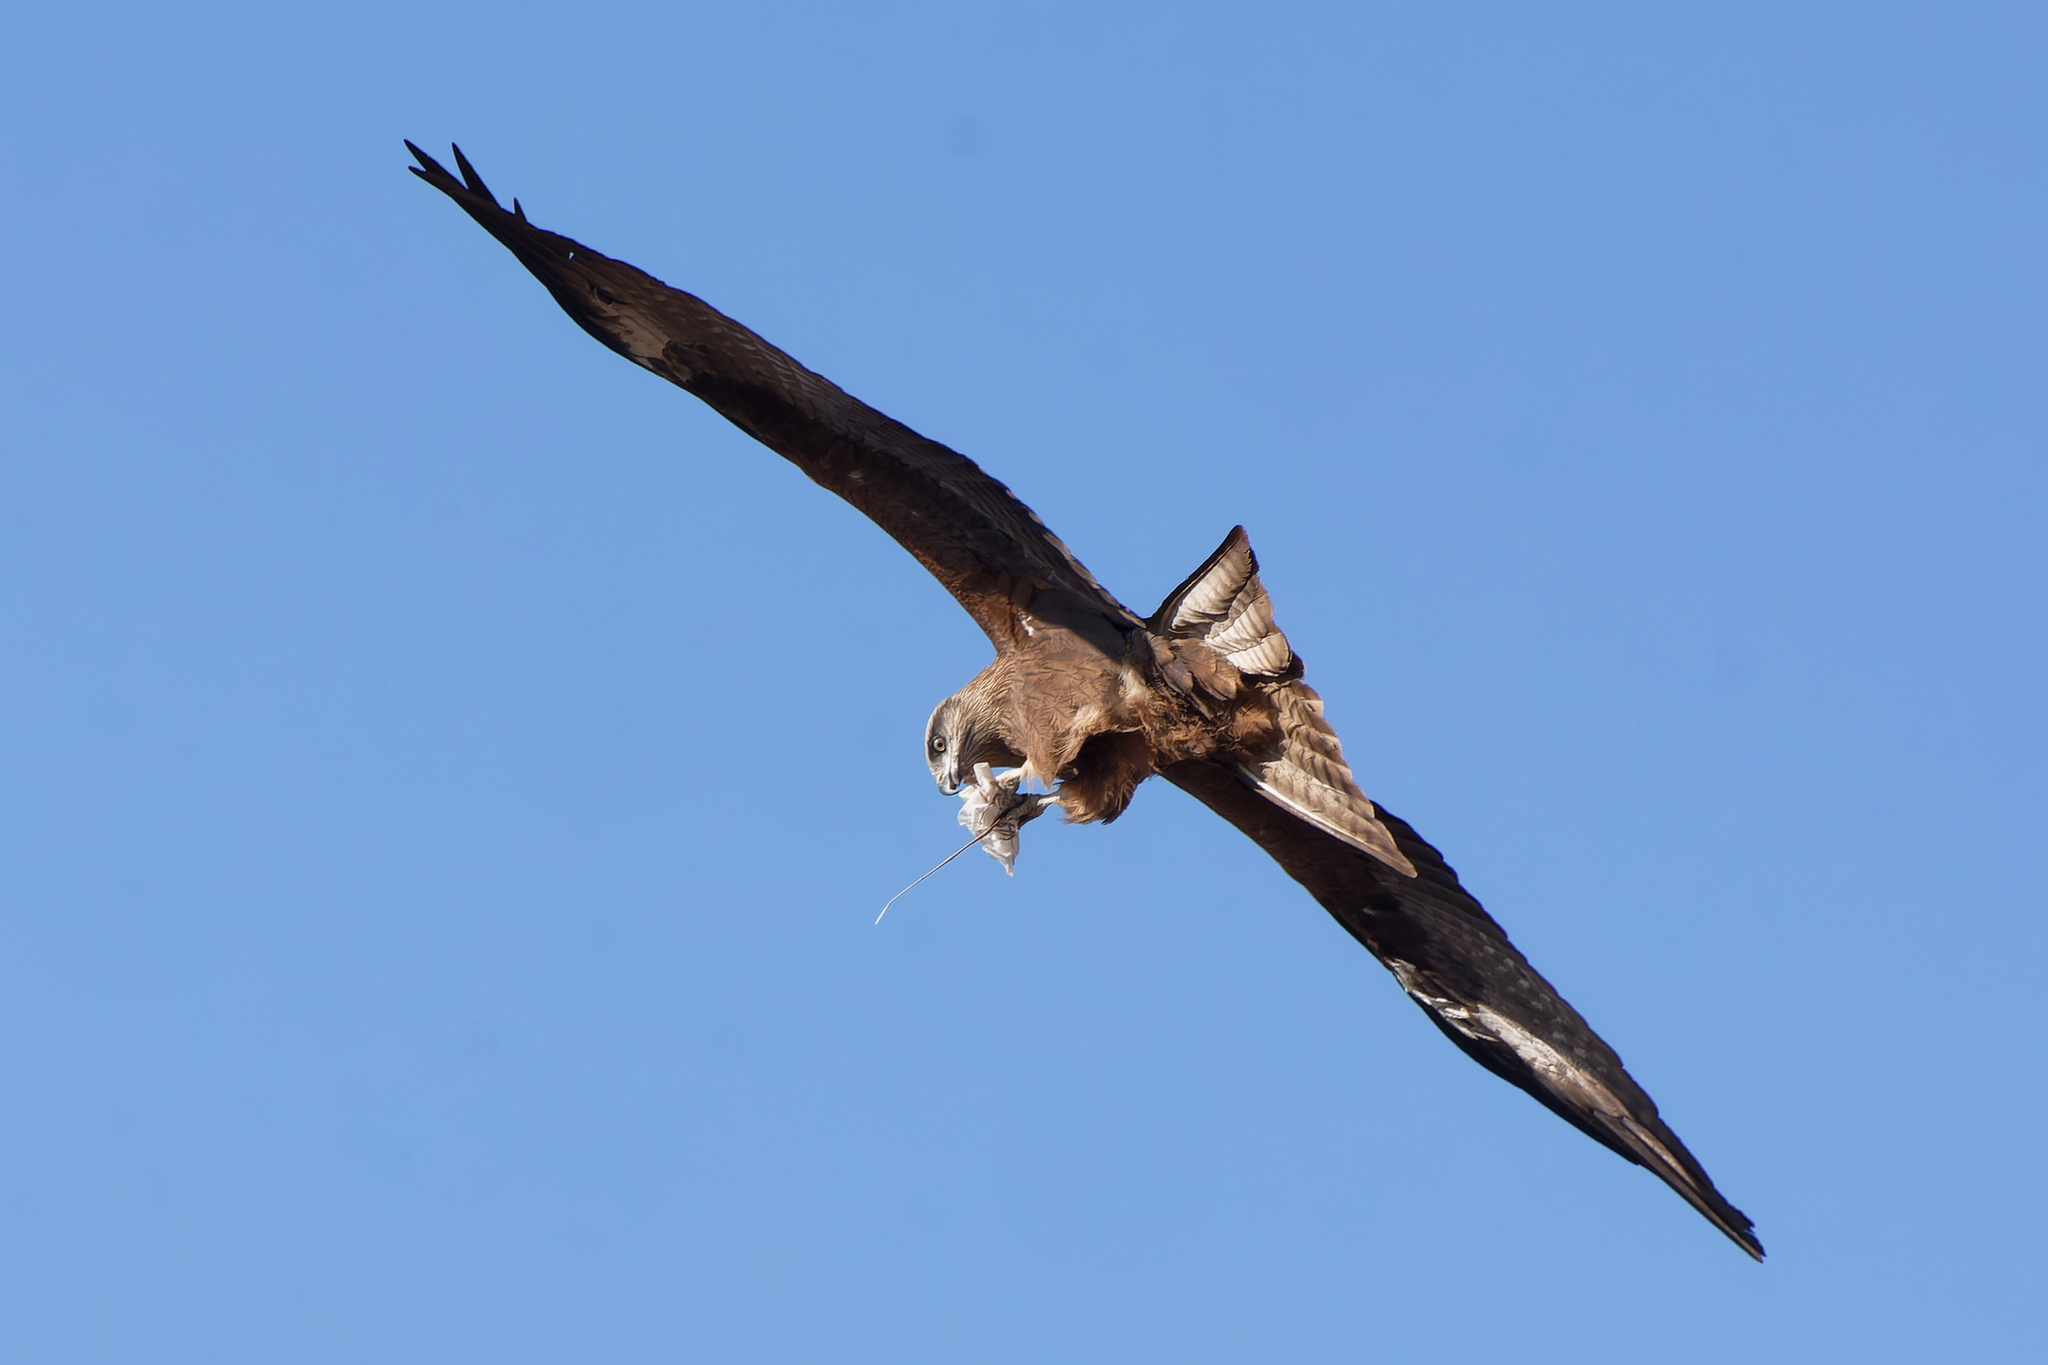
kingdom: Animalia
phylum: Chordata
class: Aves
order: Accipitriformes
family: Accipitridae
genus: Milvus
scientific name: Milvus migrans
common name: Black kite
